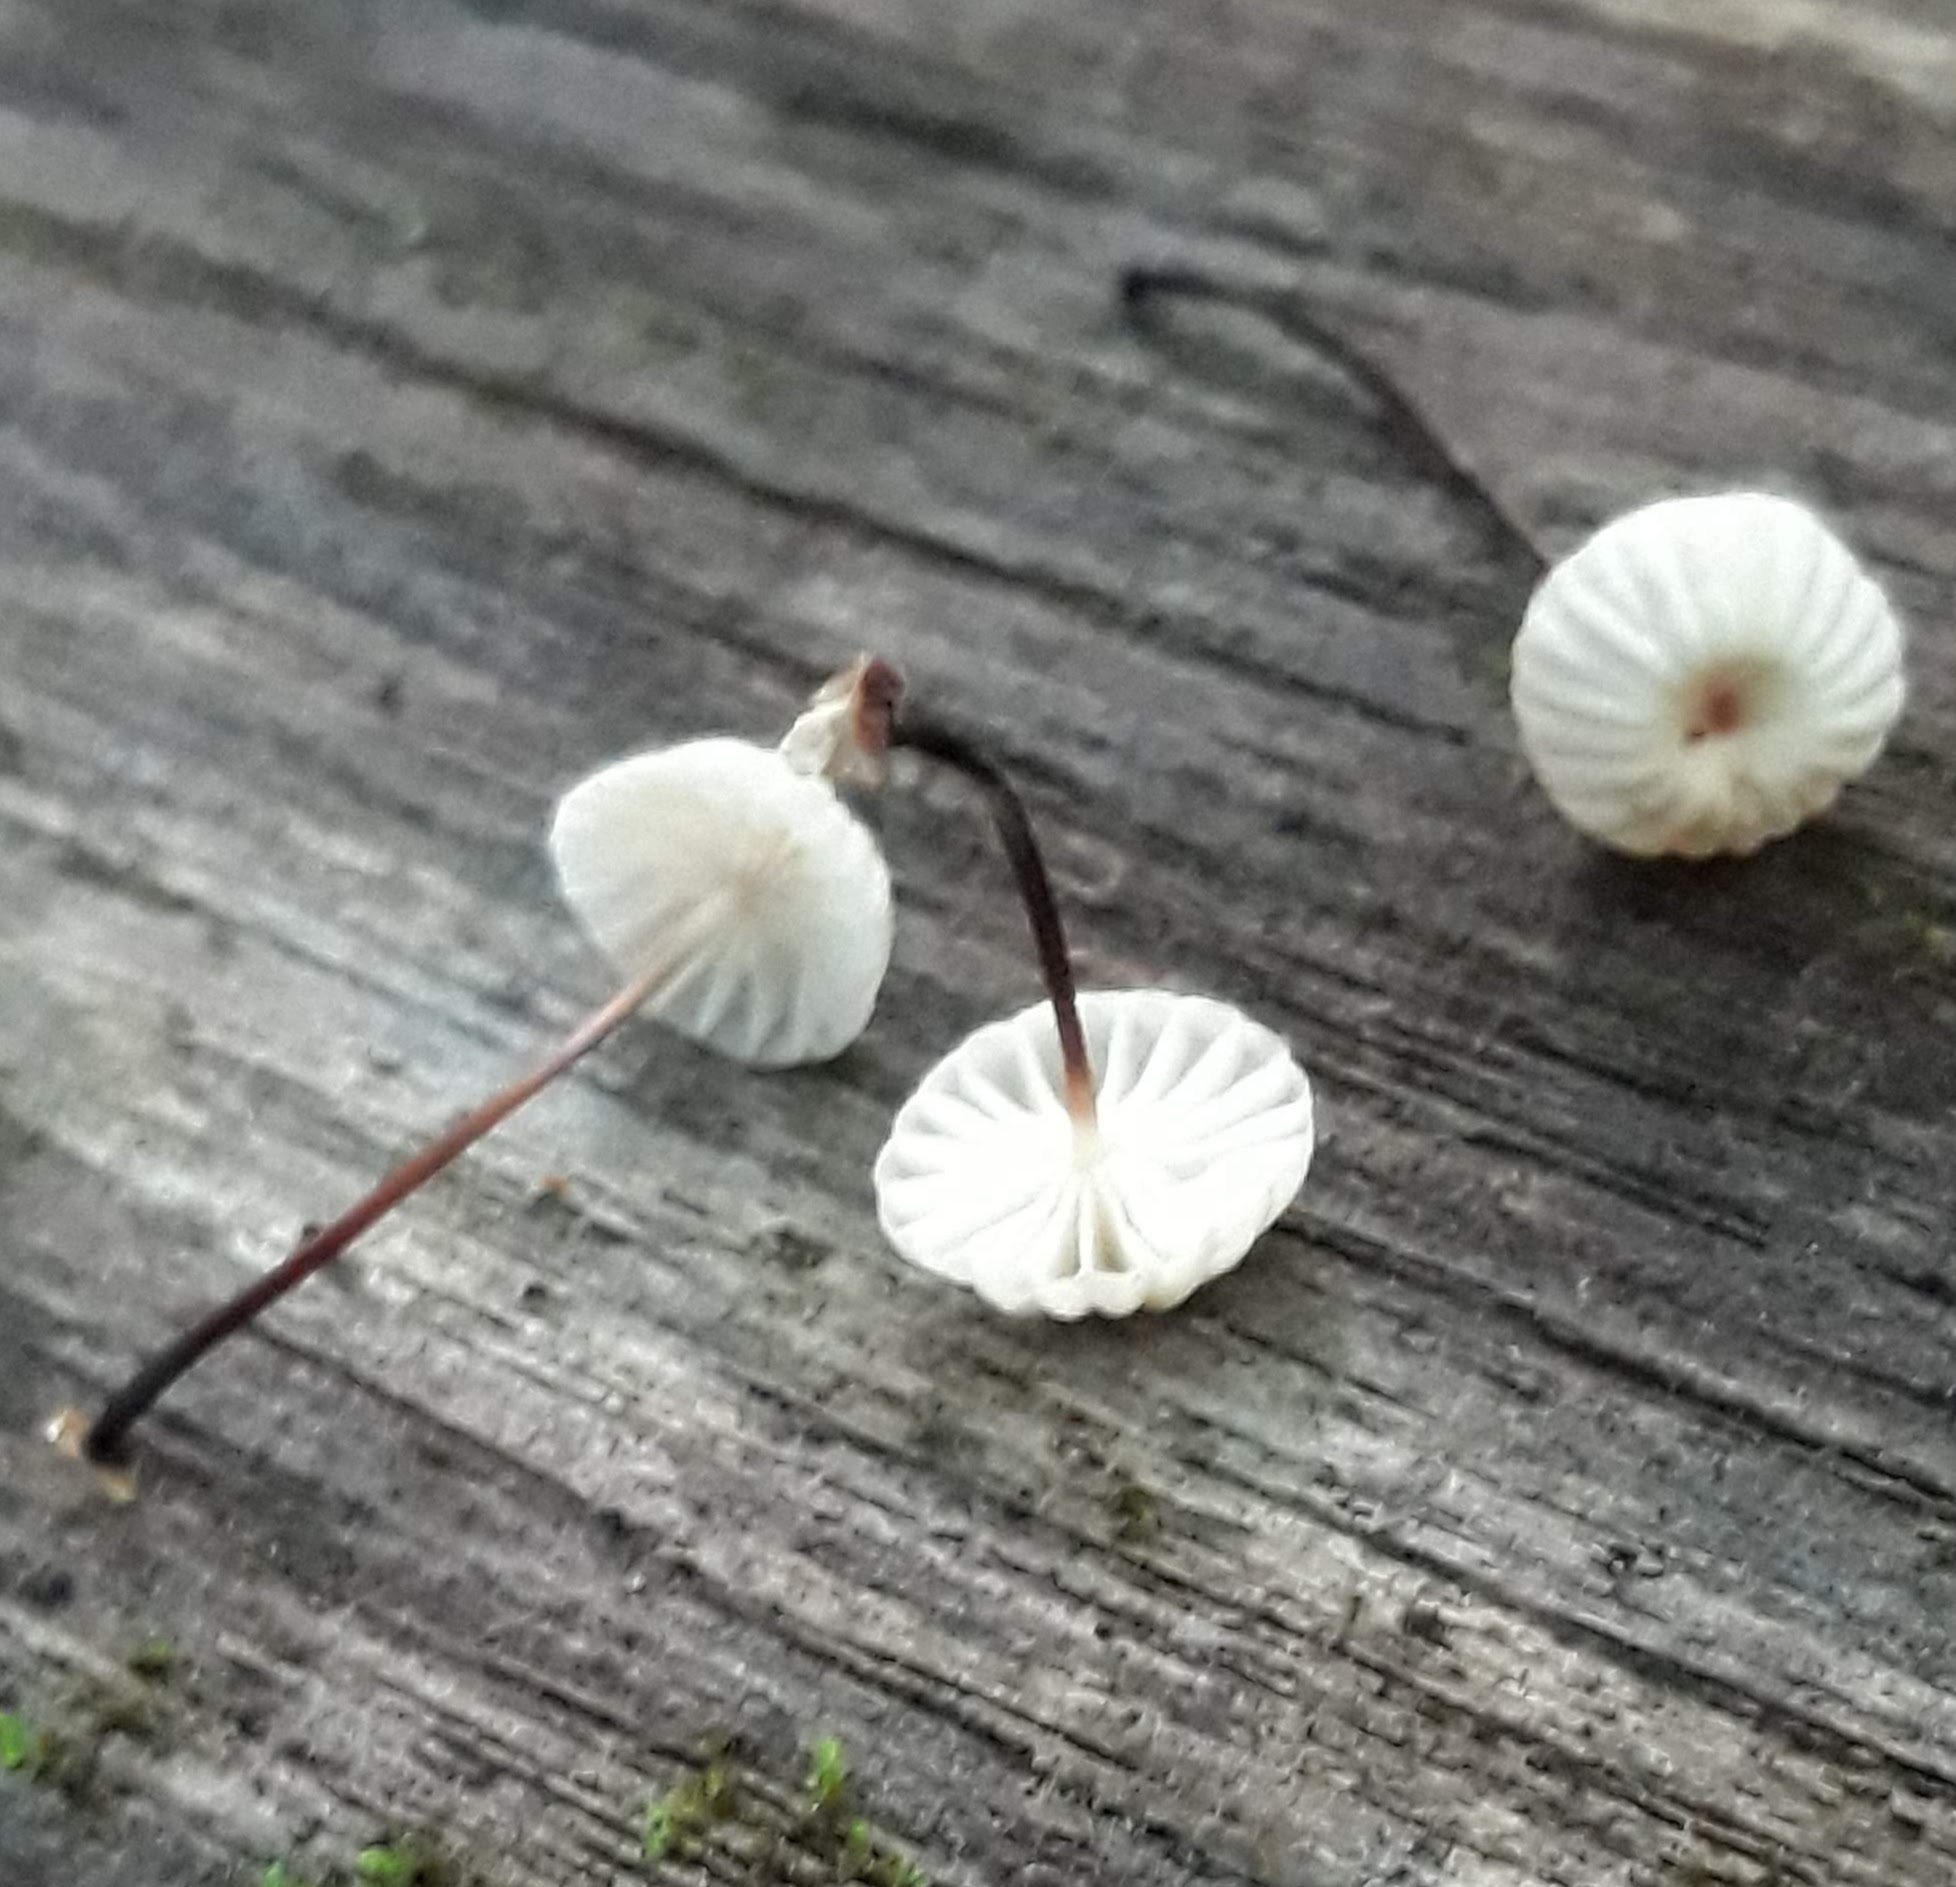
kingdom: Fungi
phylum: Basidiomycota
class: Agaricomycetes
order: Agaricales
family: Marasmiaceae
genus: Marasmius
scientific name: Marasmius rotula
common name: Collared parachute
